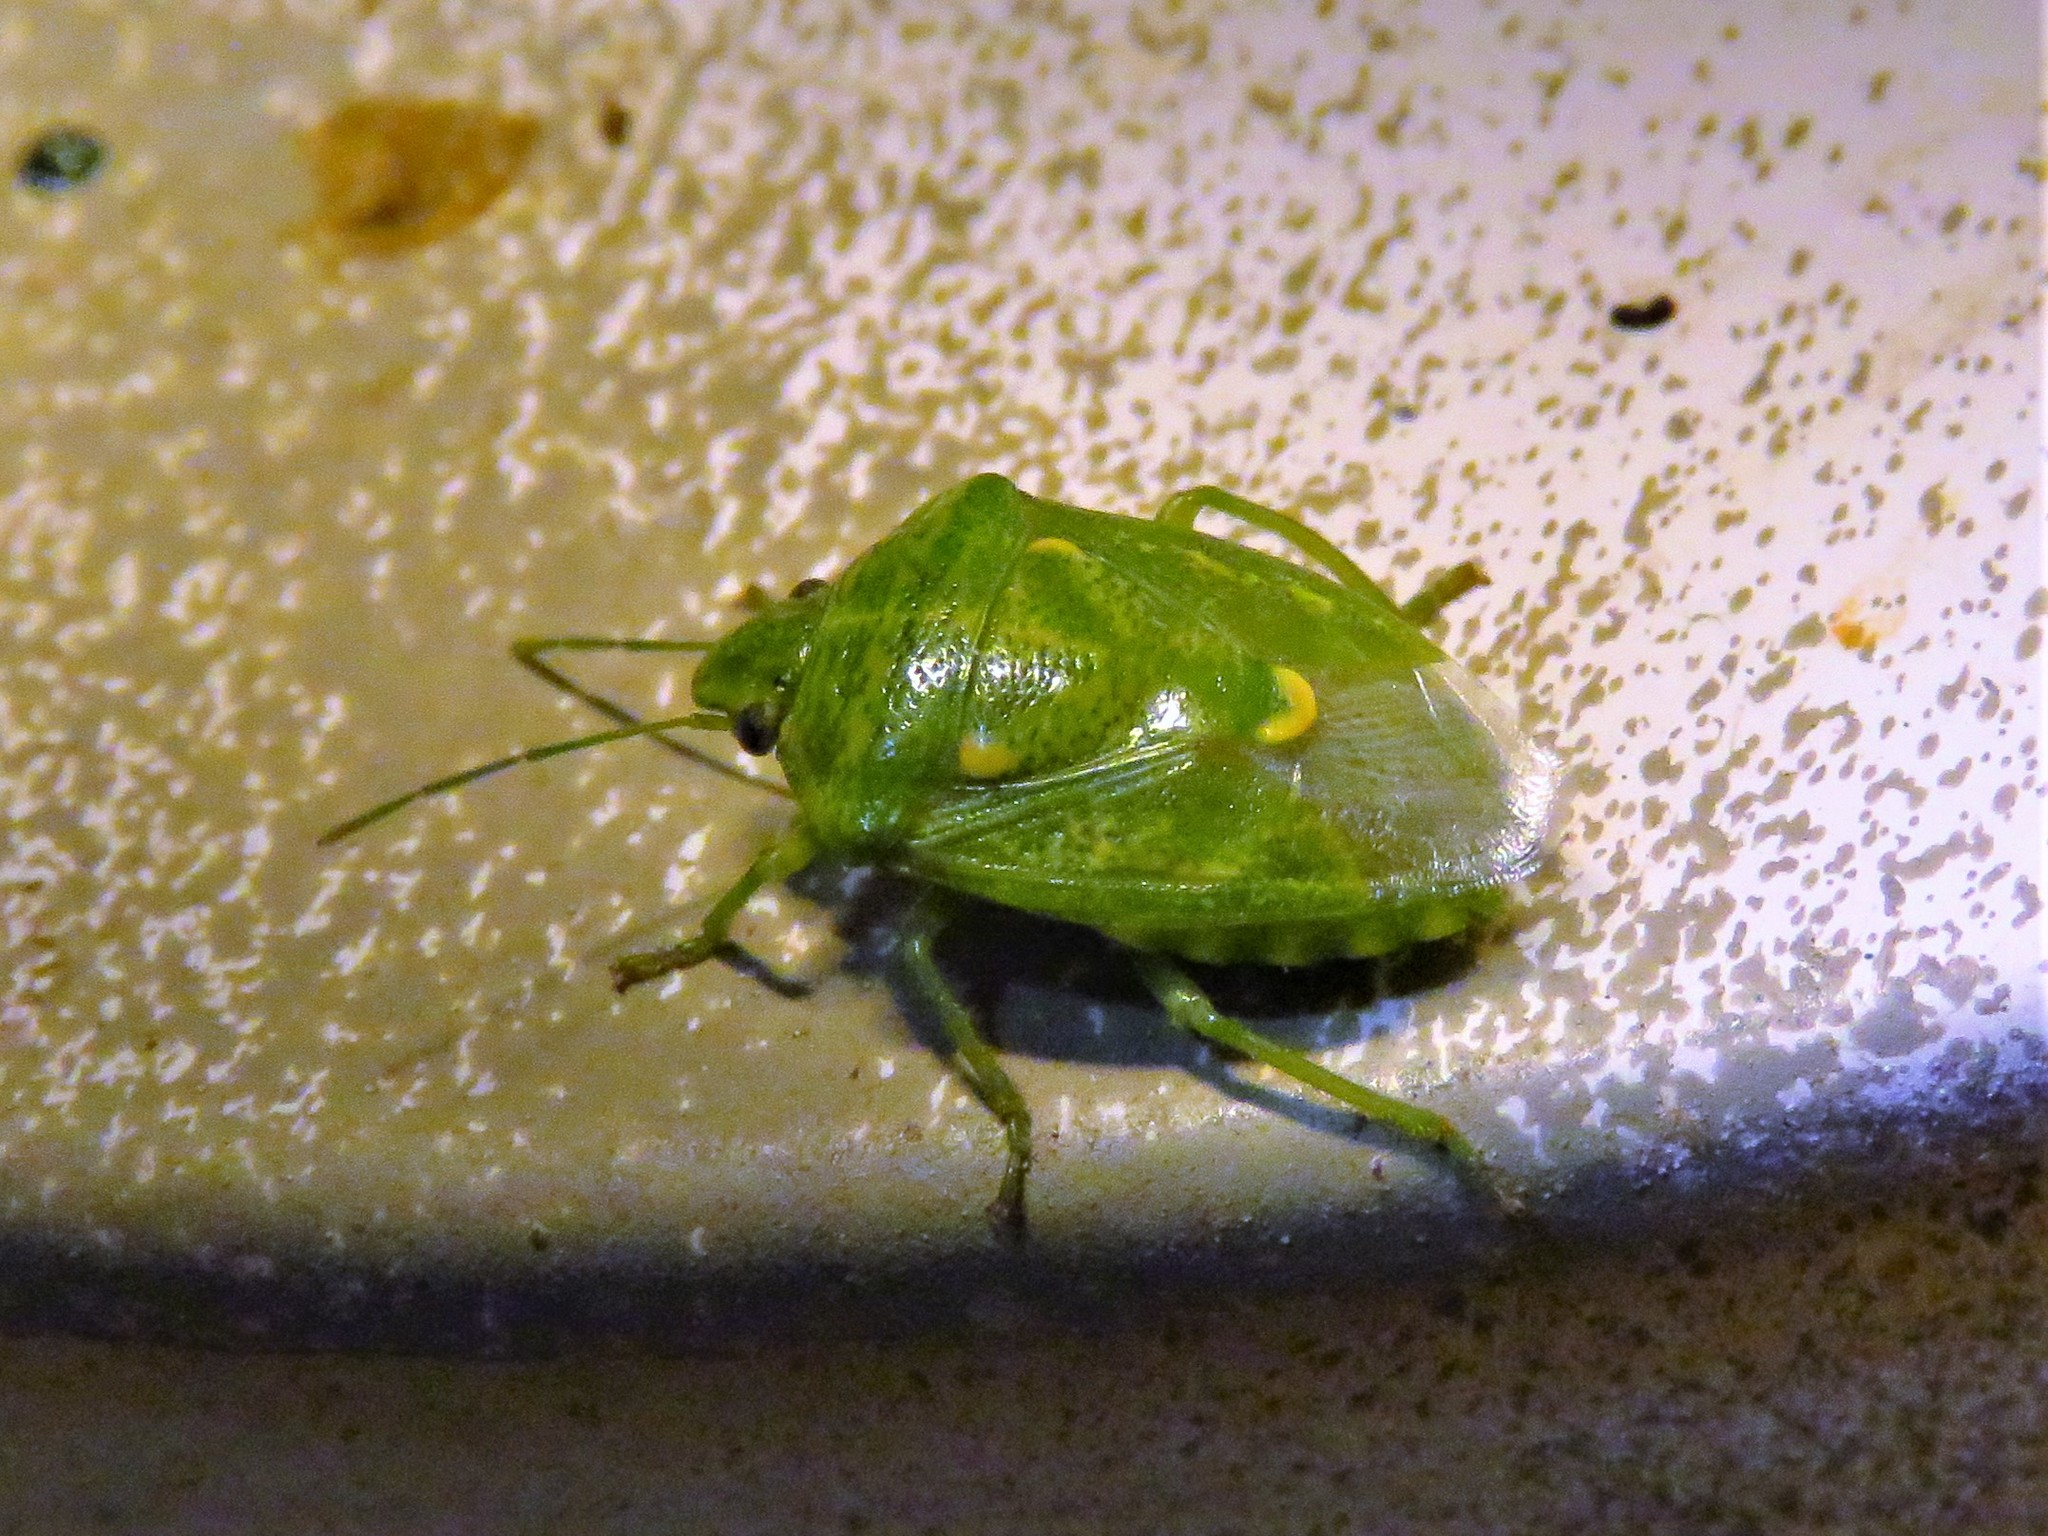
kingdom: Animalia
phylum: Arthropoda
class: Insecta
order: Hemiptera
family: Pentatomidae
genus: Banasa
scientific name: Banasa euchlora
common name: Cedar berry bug
